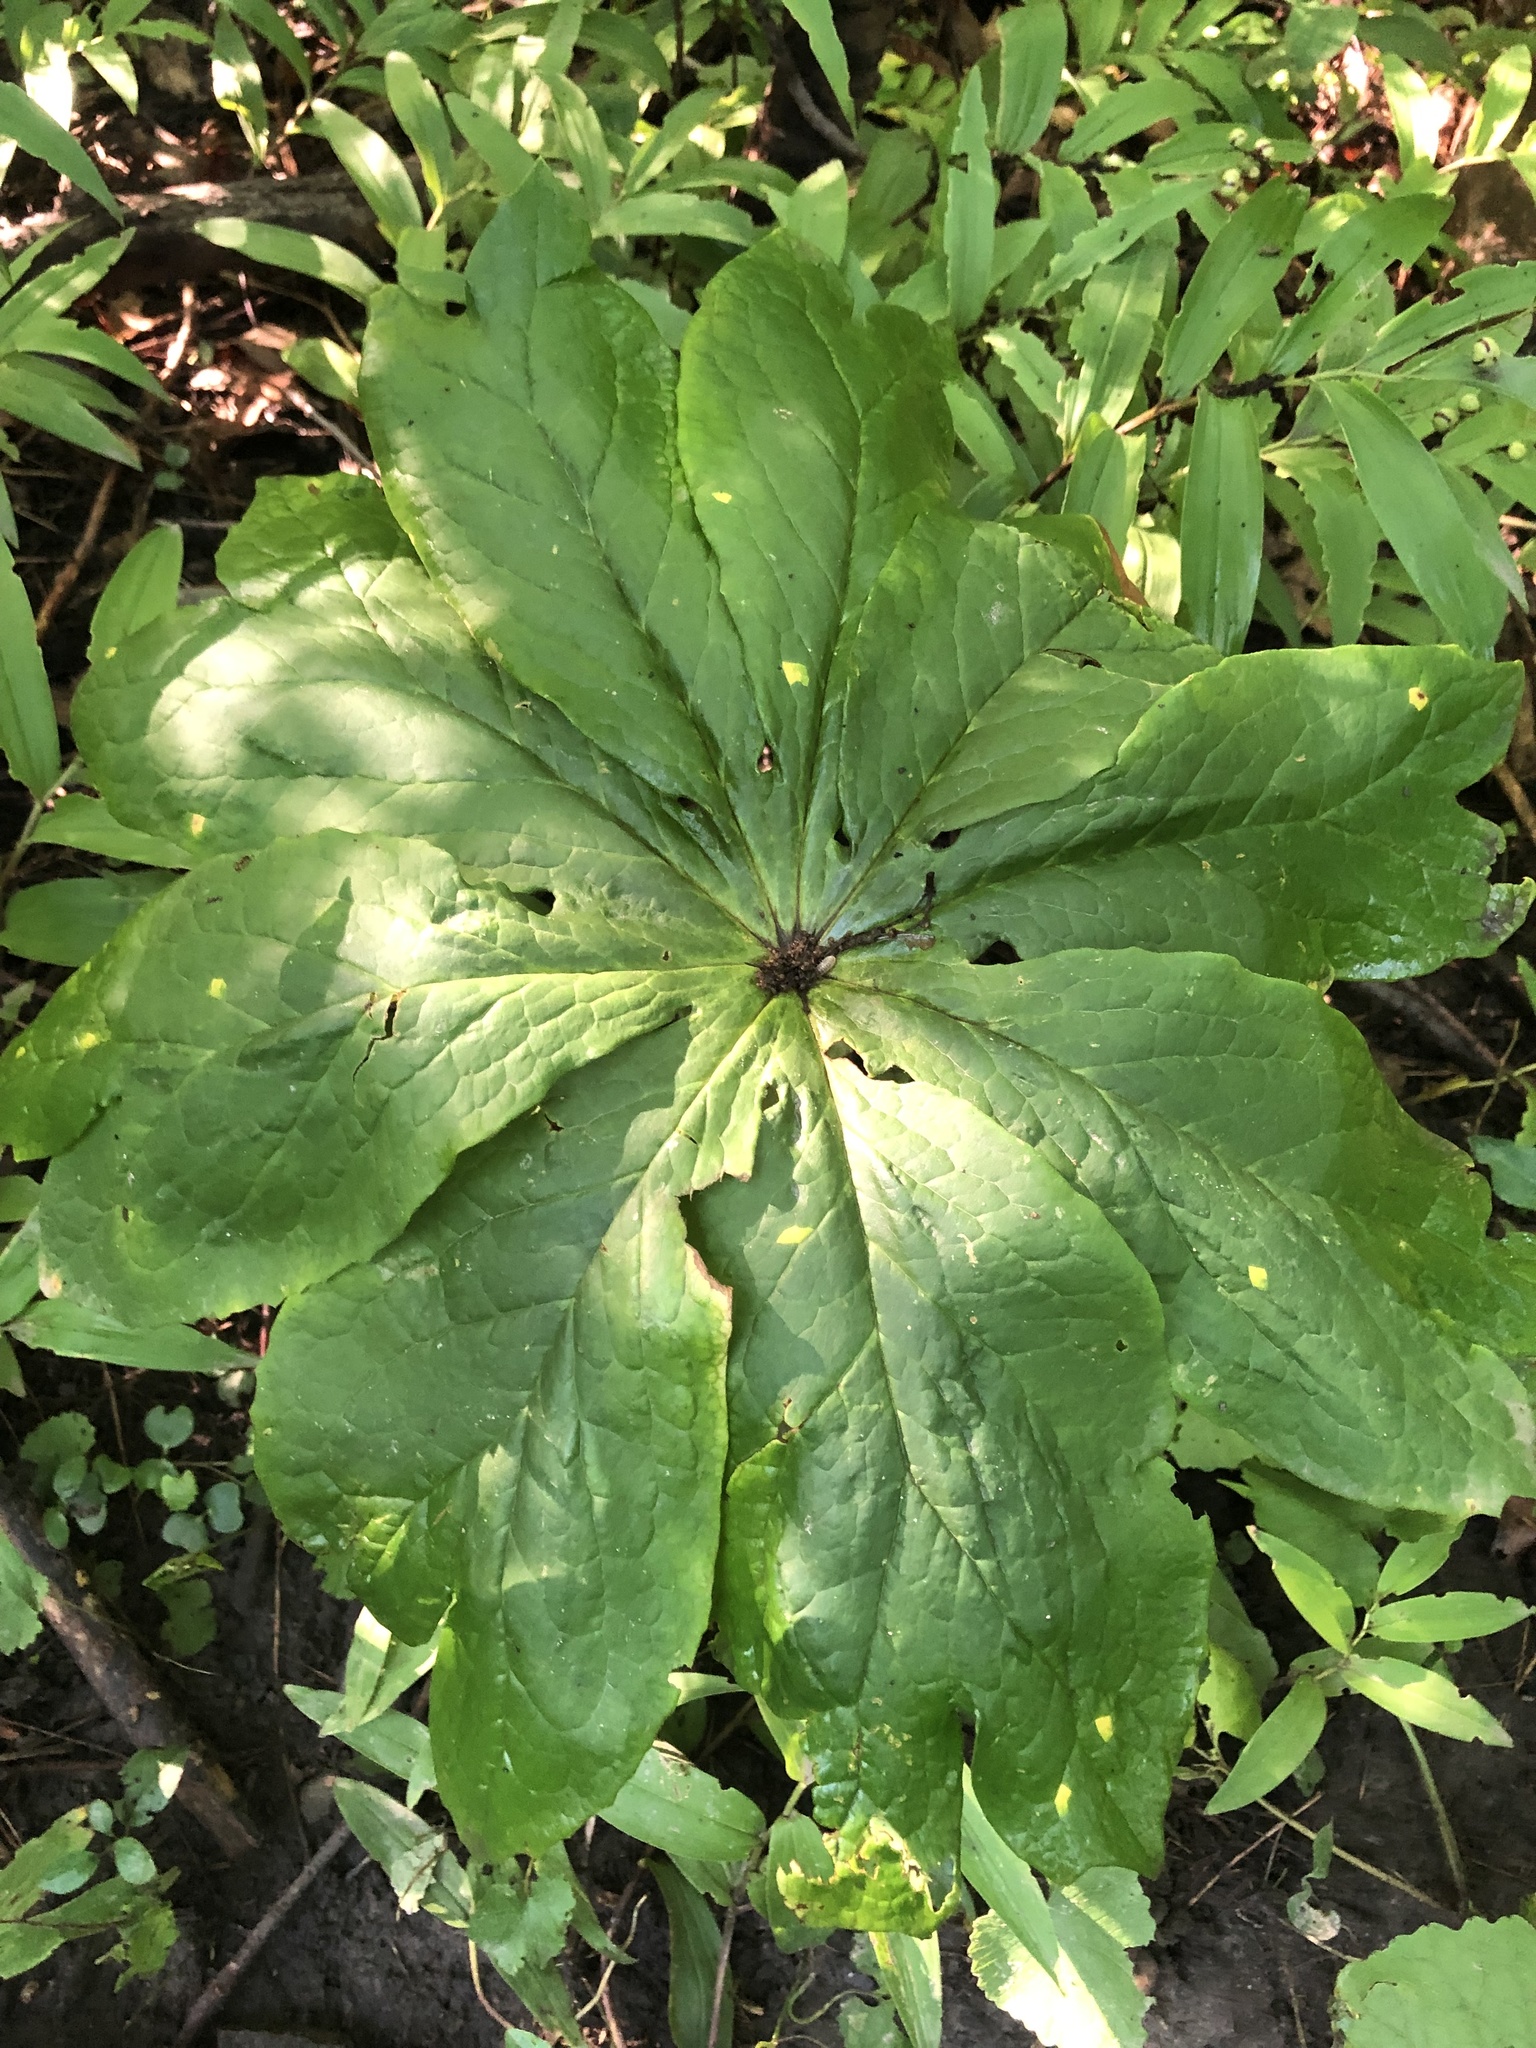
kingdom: Plantae
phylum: Tracheophyta
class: Magnoliopsida
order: Ranunculales
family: Berberidaceae
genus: Podophyllum
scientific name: Podophyllum peltatum
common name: Wild mandrake
